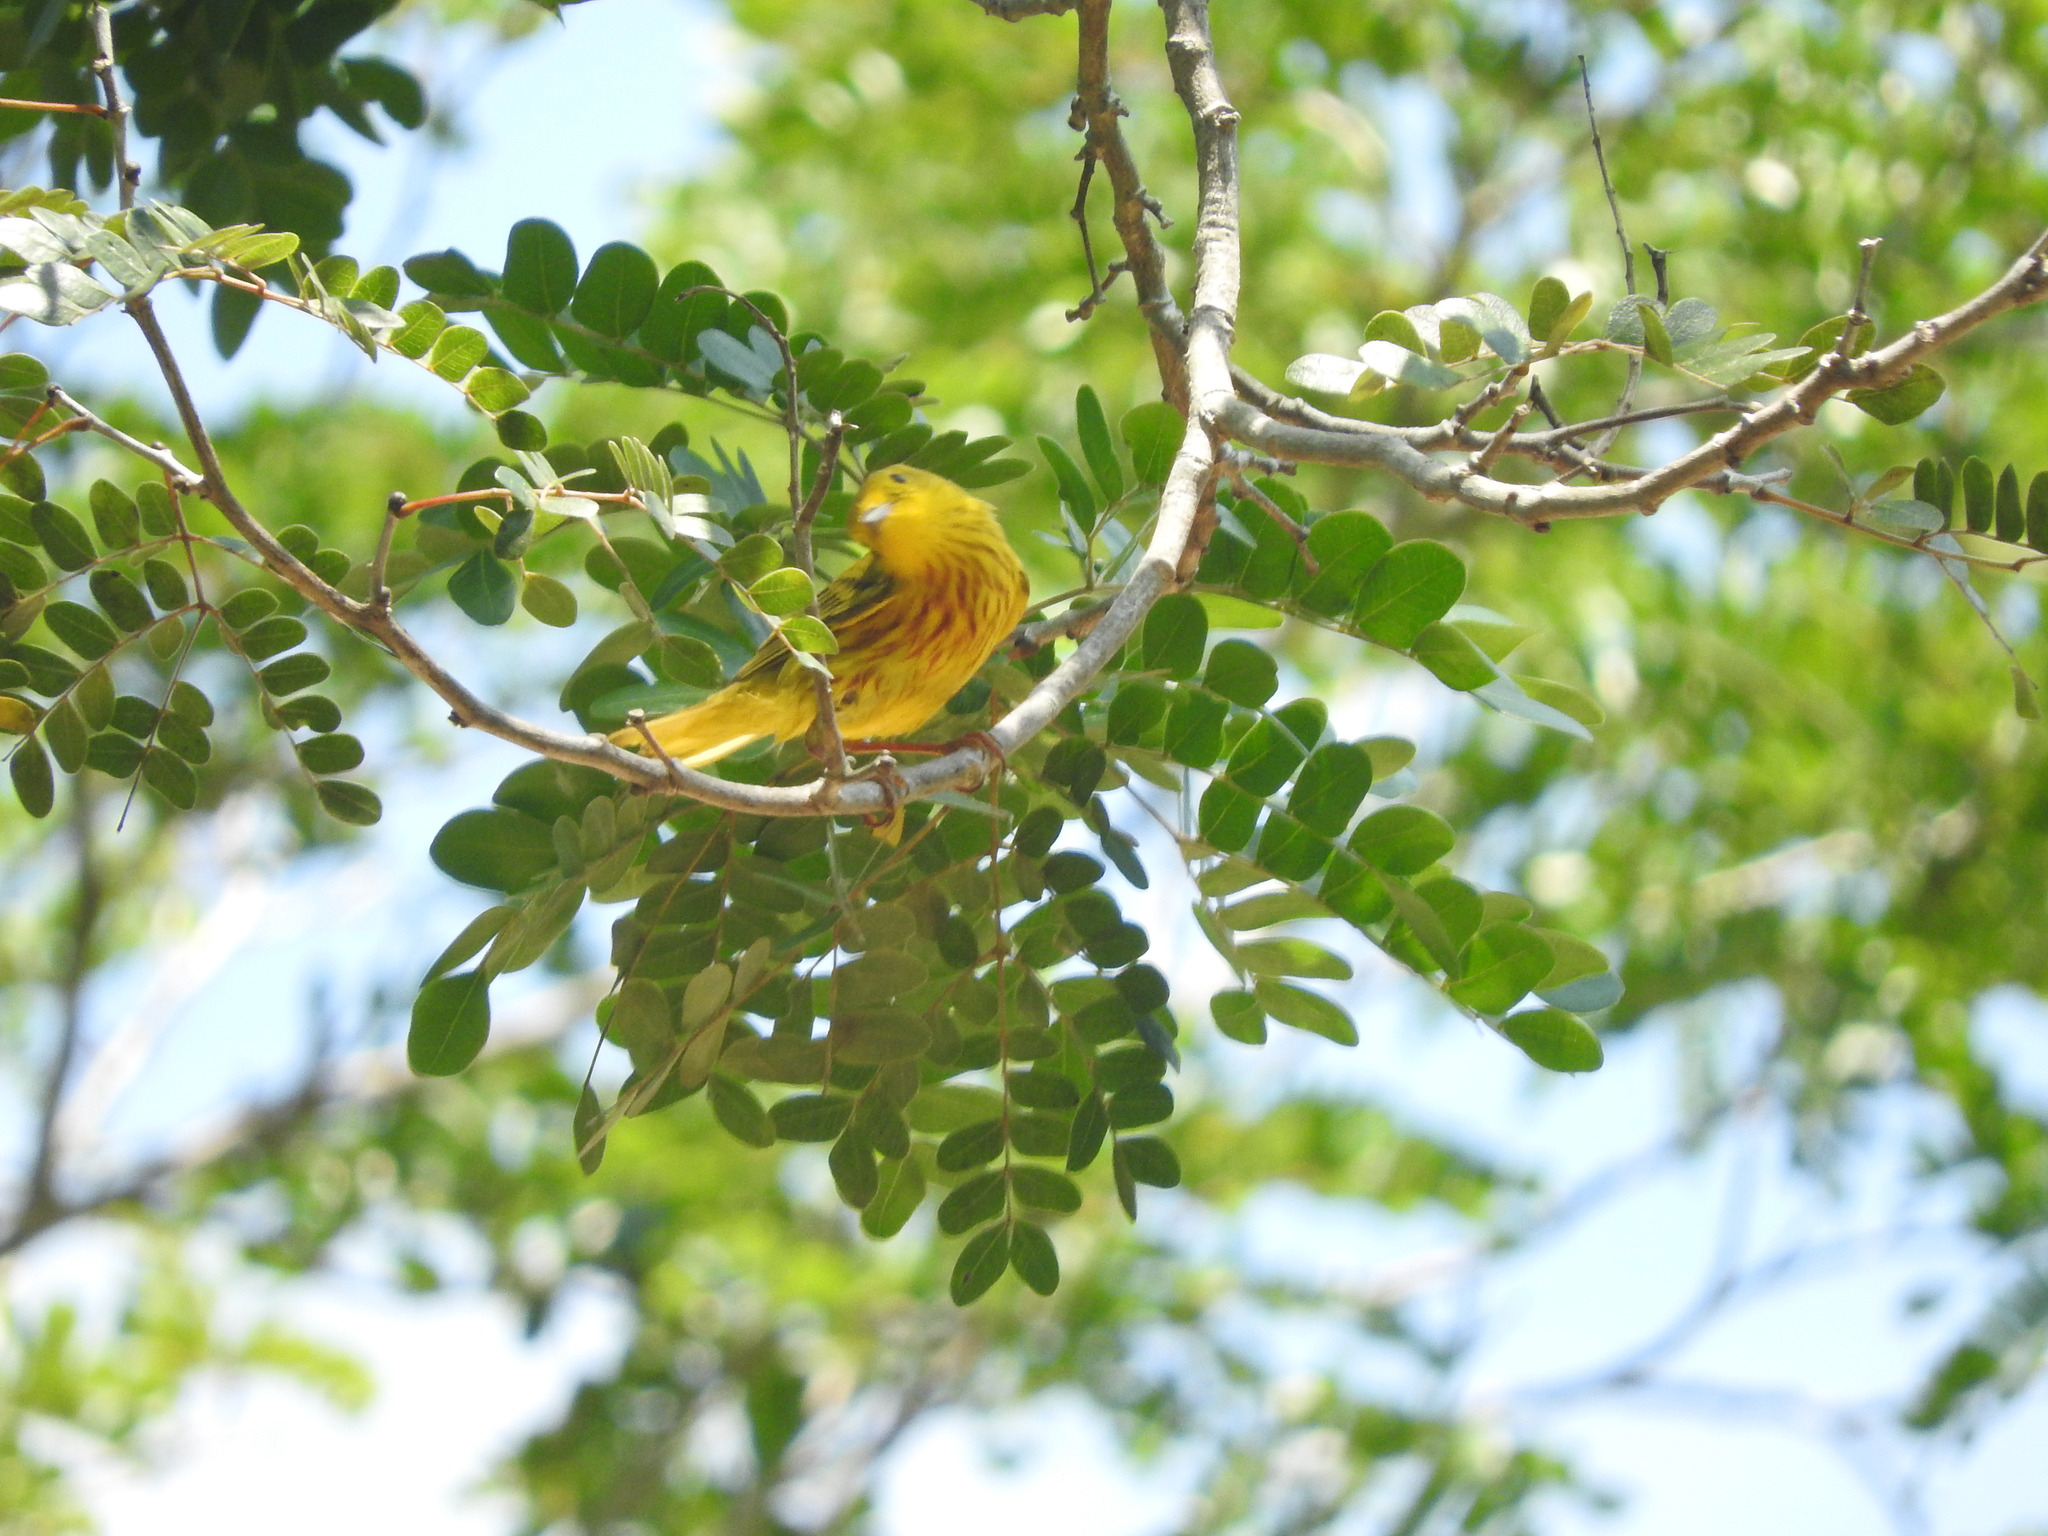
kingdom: Animalia
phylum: Chordata
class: Aves
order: Passeriformes
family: Parulidae
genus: Setophaga
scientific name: Setophaga petechia
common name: Yellow warbler
